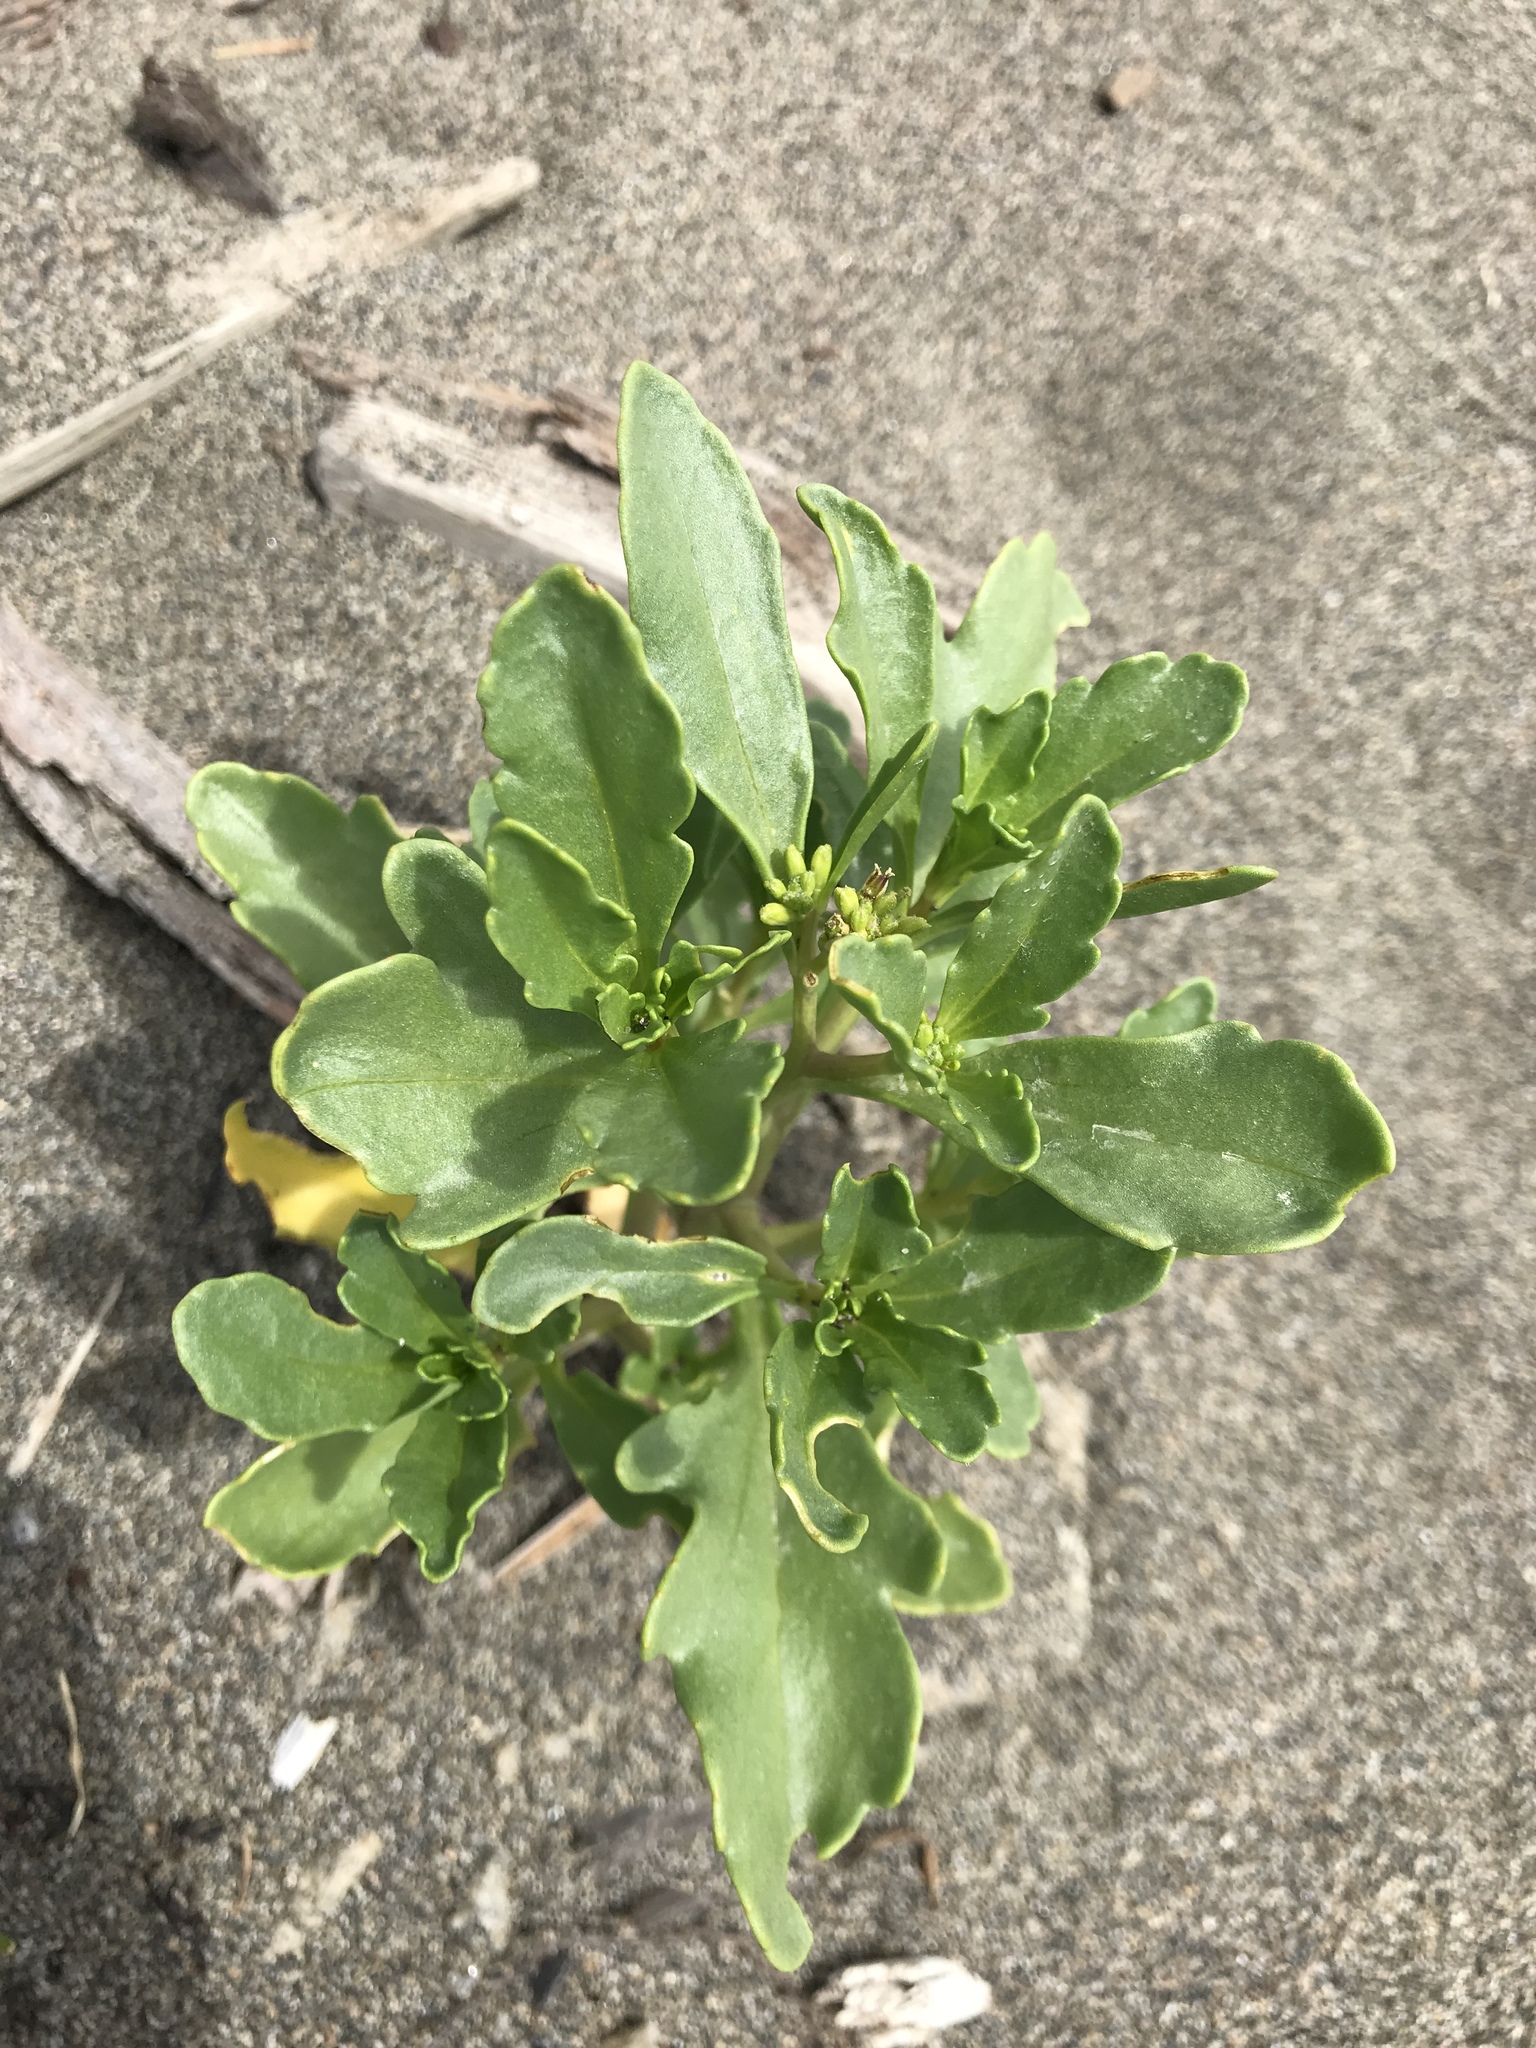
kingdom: Plantae
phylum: Tracheophyta
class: Magnoliopsida
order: Brassicales
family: Brassicaceae
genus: Cakile
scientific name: Cakile edentula
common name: American sea rocket
